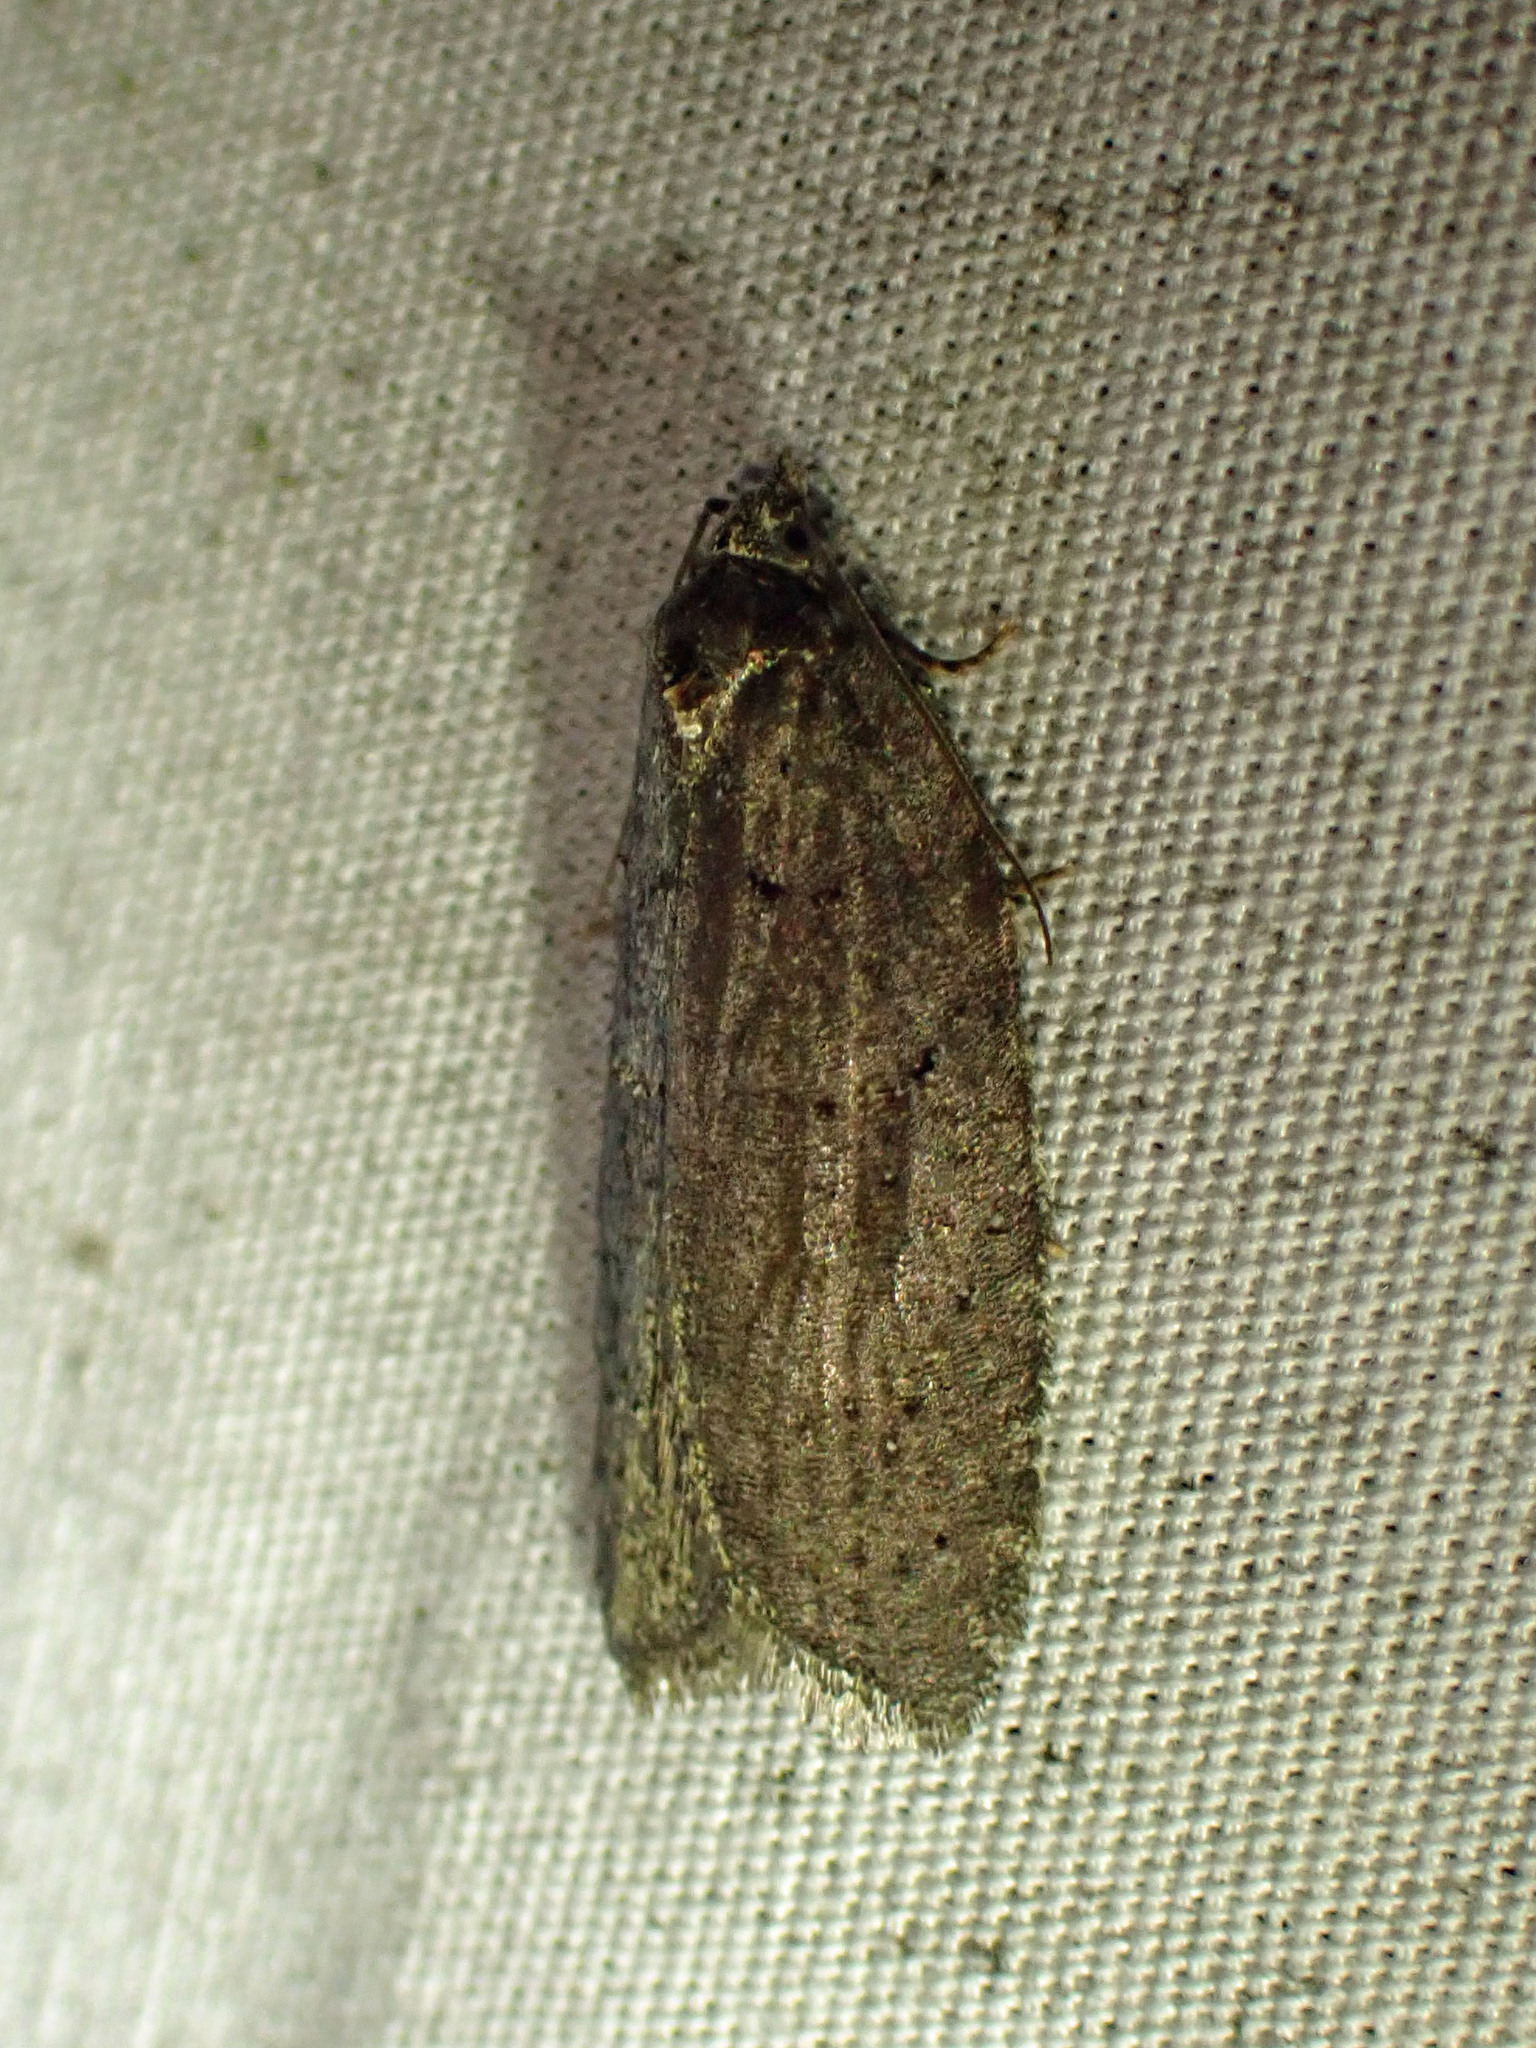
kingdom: Animalia
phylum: Arthropoda
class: Insecta
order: Lepidoptera
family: Tortricidae
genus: Acleris
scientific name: Acleris caliginosana
